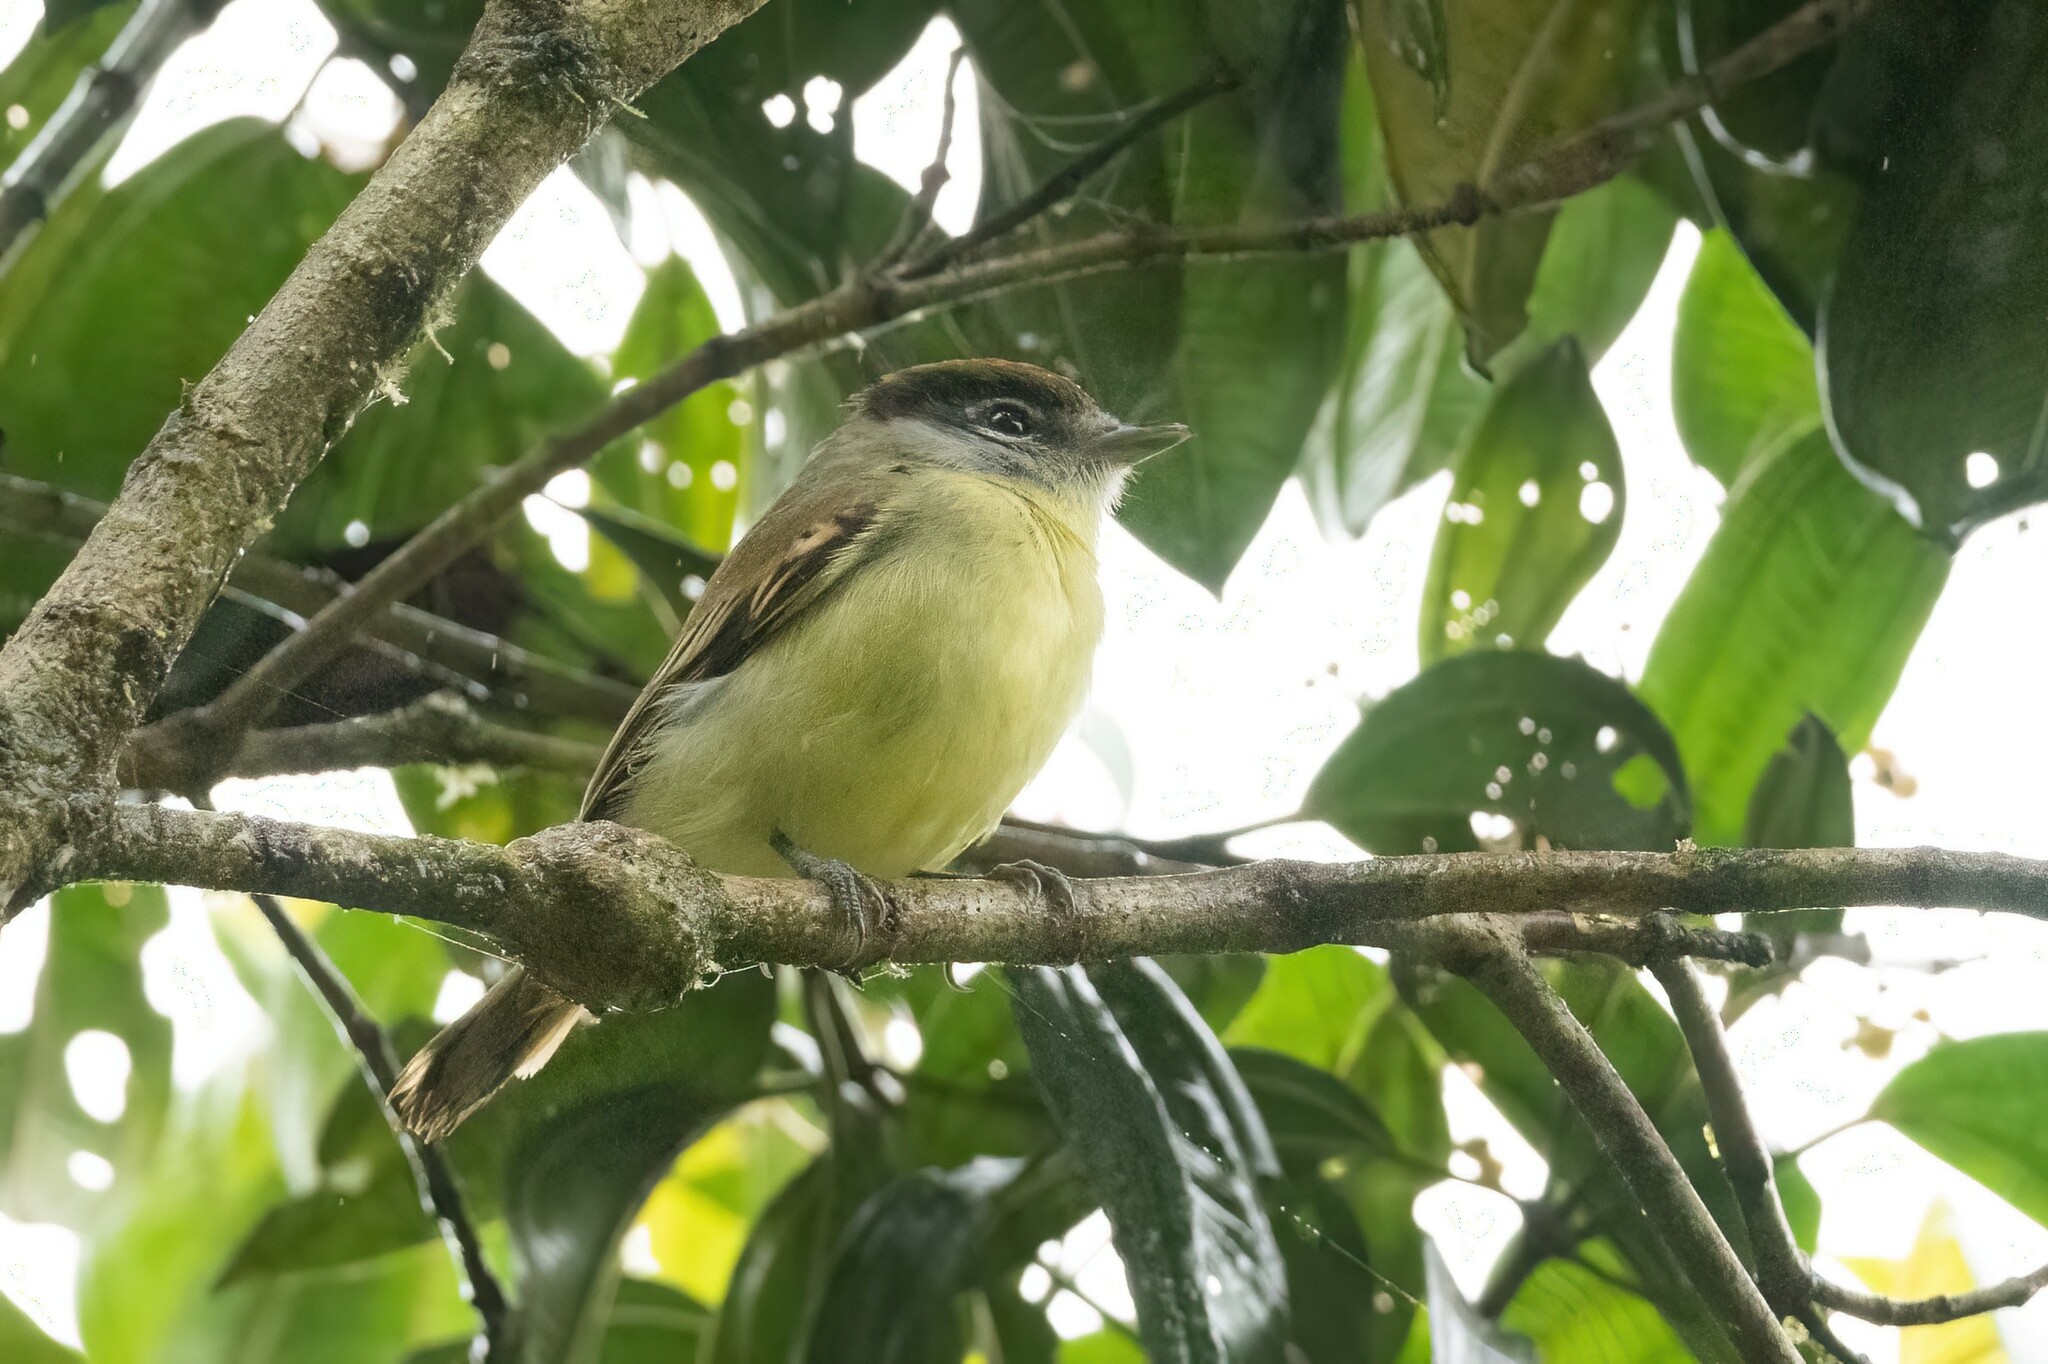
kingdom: Animalia
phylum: Chordata
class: Aves
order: Passeriformes
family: Cotingidae
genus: Pachyramphus
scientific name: Pachyramphus polychopterus
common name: White-winged becard
